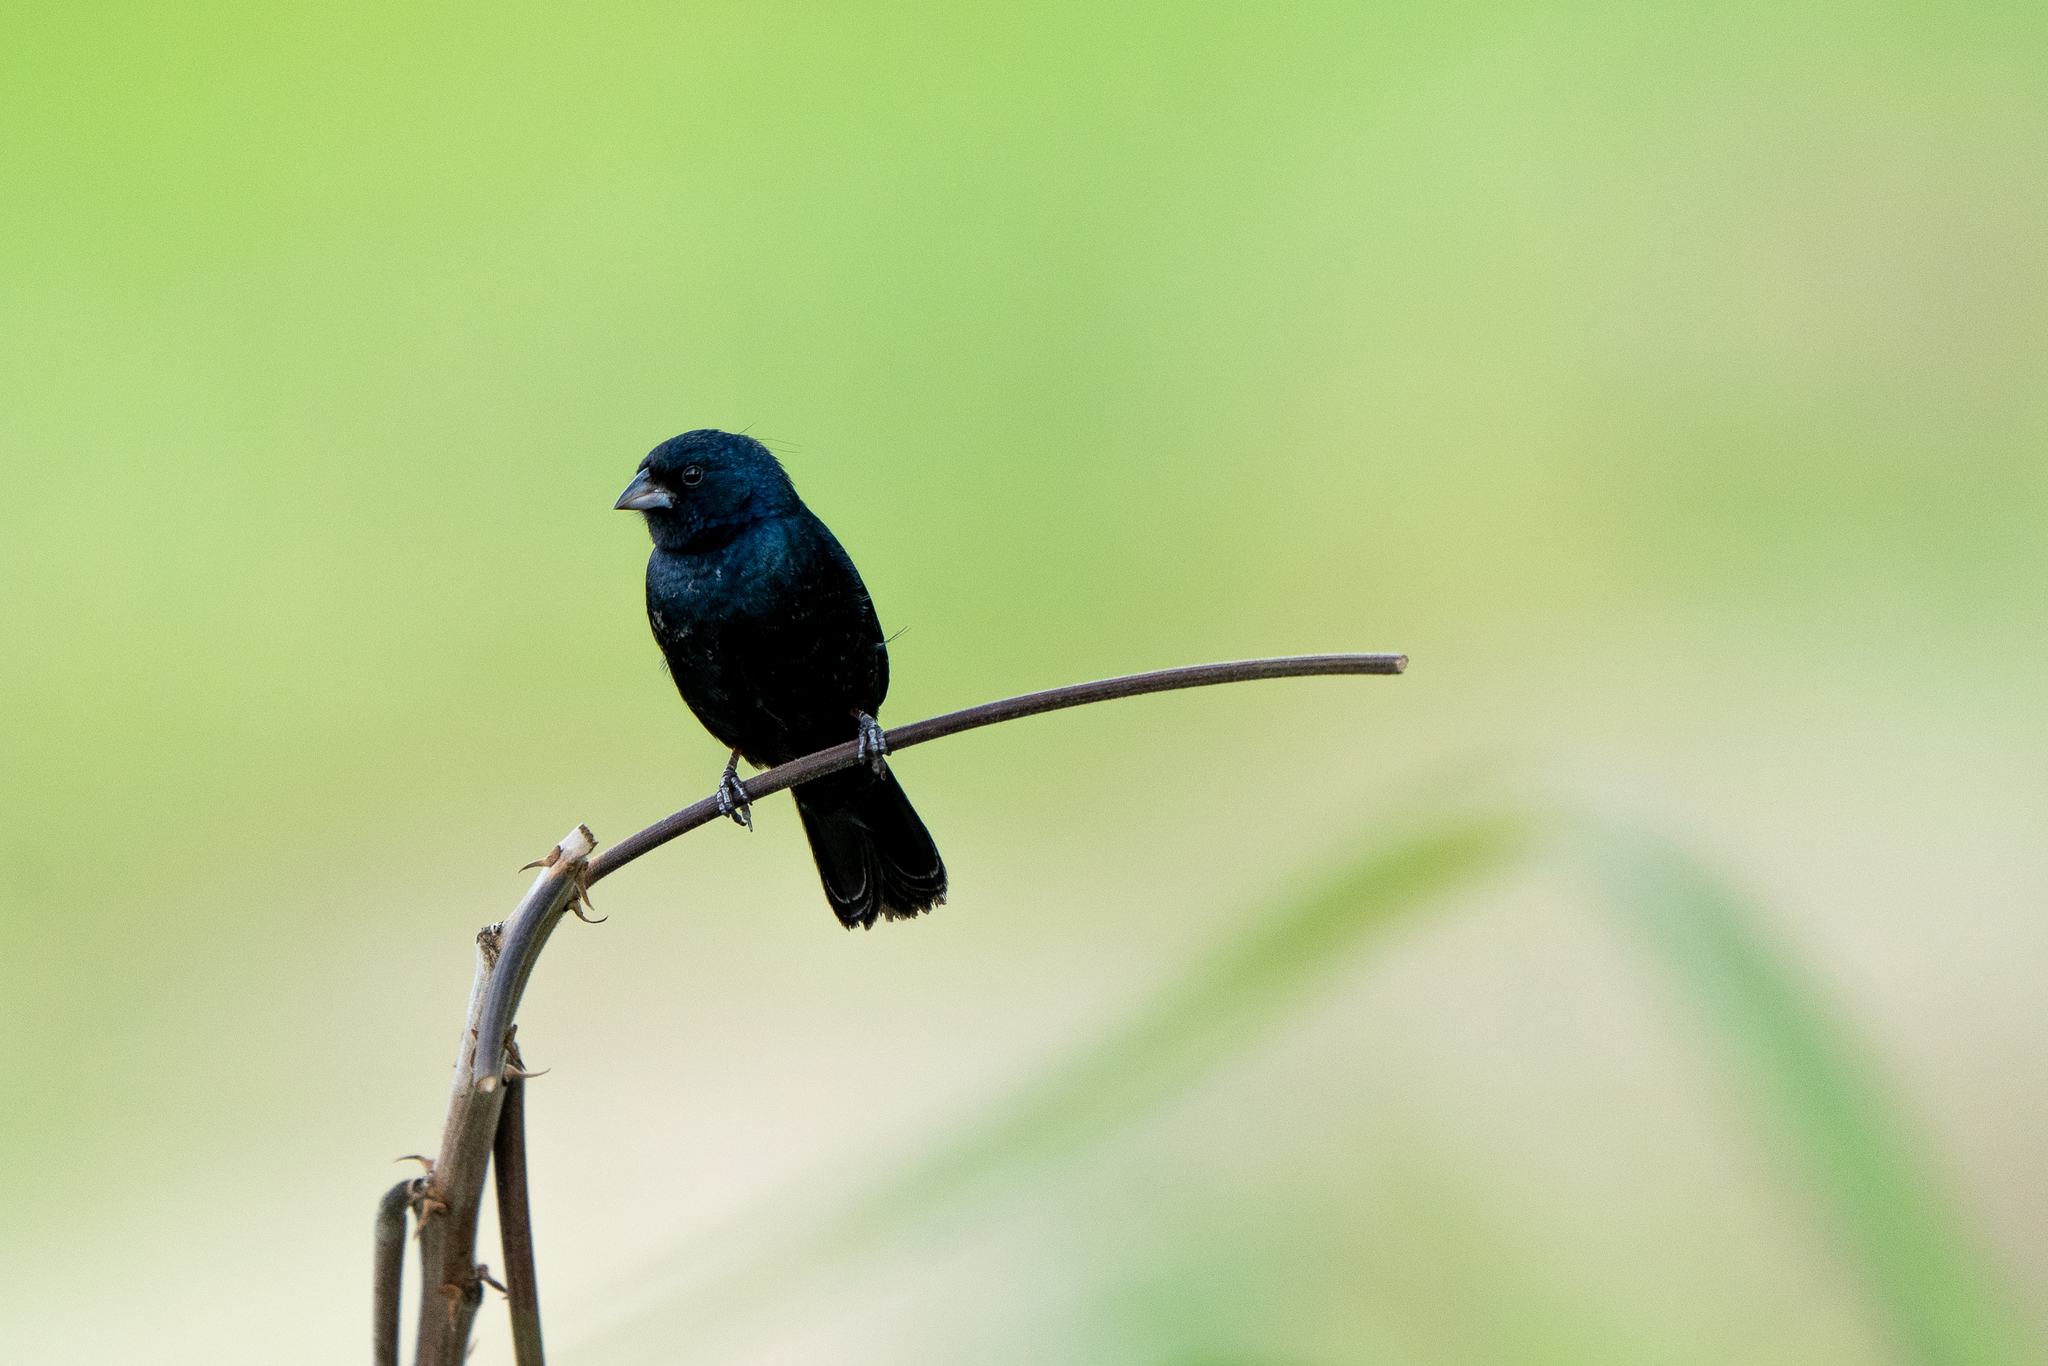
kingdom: Animalia
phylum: Chordata
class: Aves
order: Passeriformes
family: Thraupidae
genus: Volatinia
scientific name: Volatinia jacarina
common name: Blue-black grassquit
